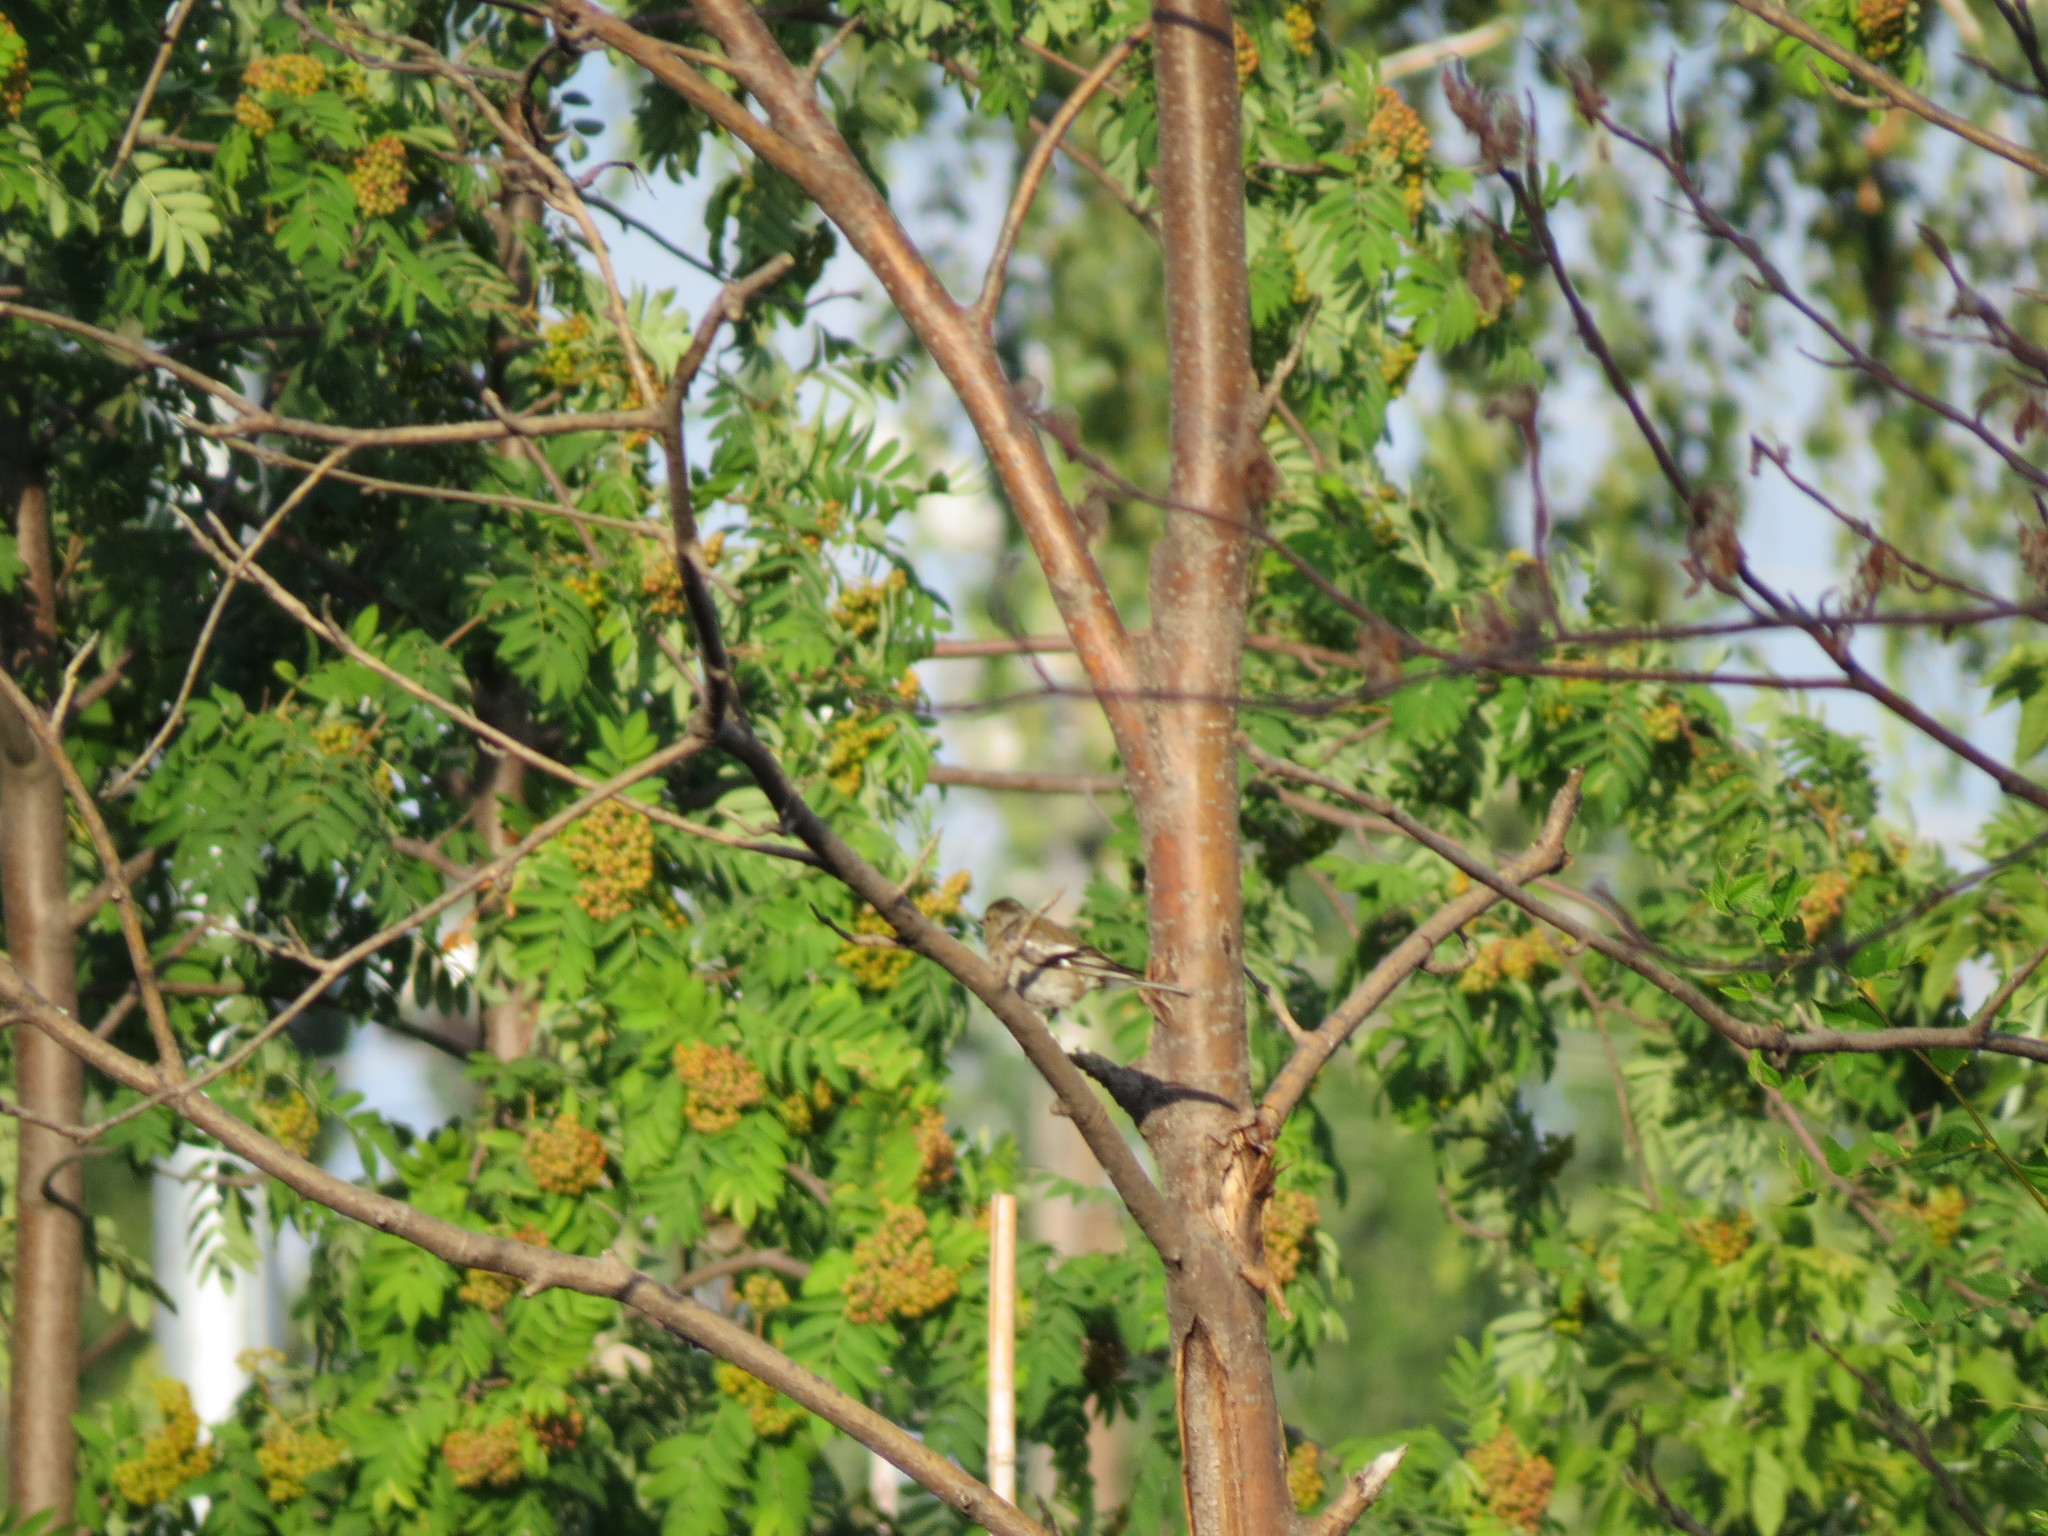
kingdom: Animalia
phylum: Chordata
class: Aves
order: Passeriformes
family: Fringillidae
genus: Fringilla
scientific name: Fringilla coelebs
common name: Common chaffinch
